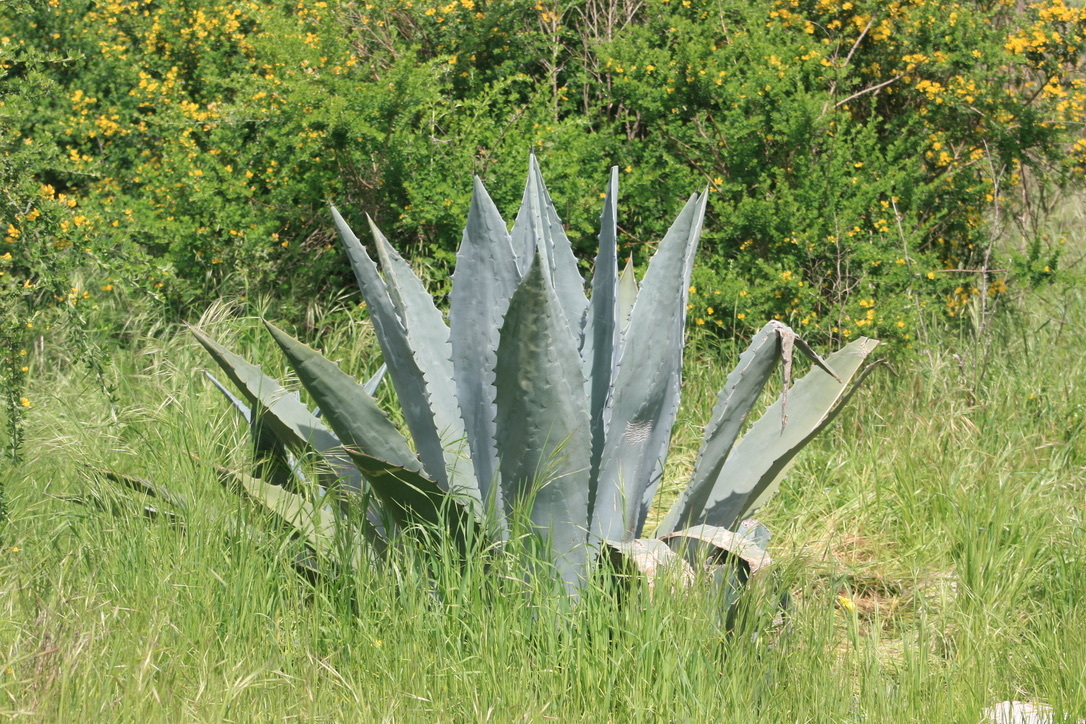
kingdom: Plantae
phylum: Tracheophyta
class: Liliopsida
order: Asparagales
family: Asparagaceae
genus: Agave
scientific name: Agave americana
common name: Centuryplant
